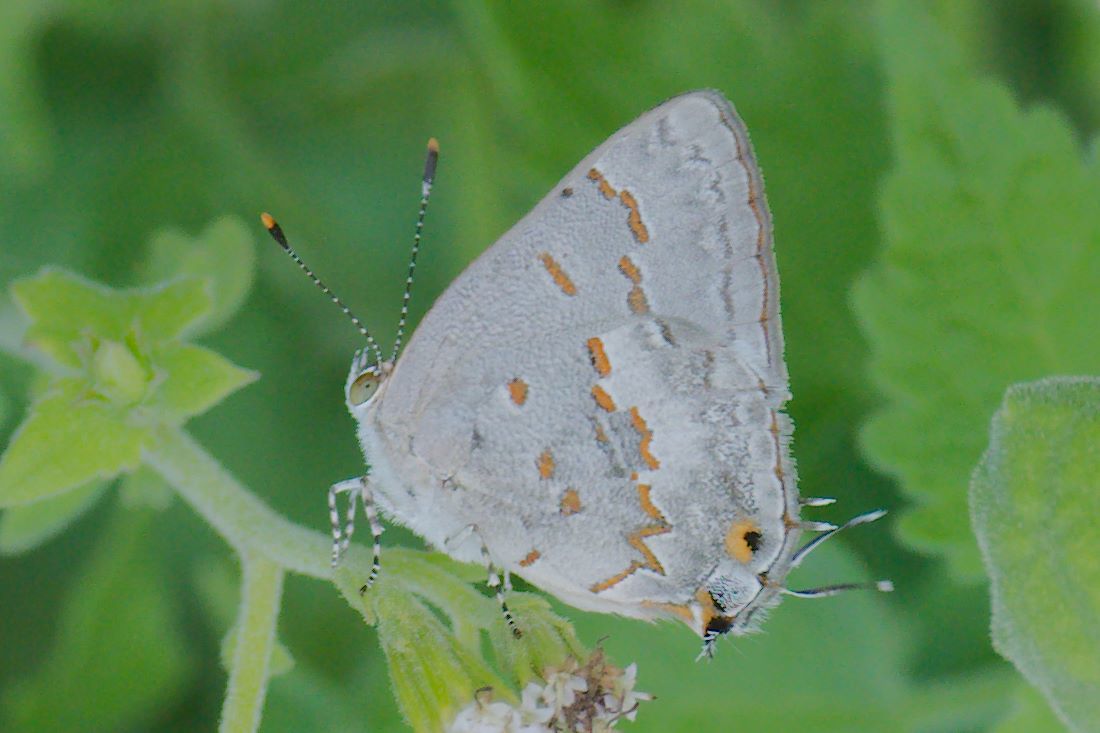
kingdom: Animalia
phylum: Arthropoda
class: Insecta
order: Lepidoptera
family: Lycaenidae
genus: Ministrymon
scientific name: Ministrymon clytie
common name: Clytie ministreak
